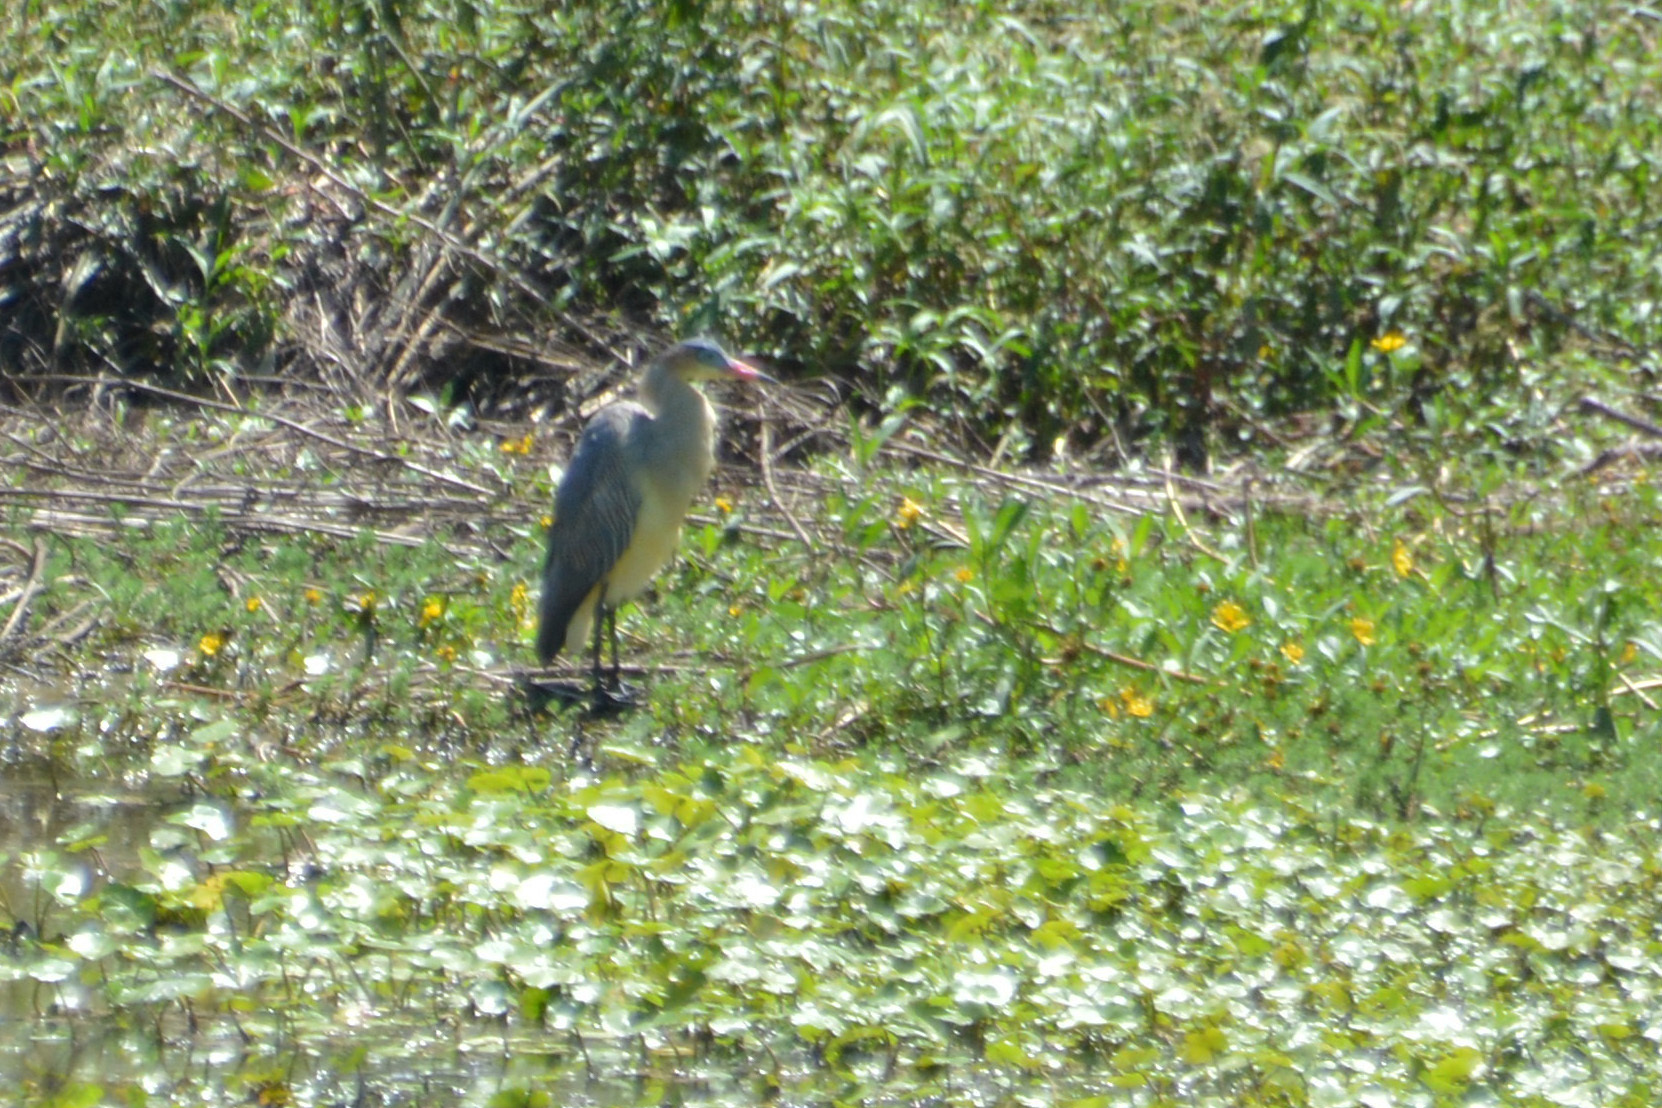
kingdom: Animalia
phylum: Chordata
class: Aves
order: Pelecaniformes
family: Ardeidae
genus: Syrigma
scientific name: Syrigma sibilatrix
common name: Whistling heron
